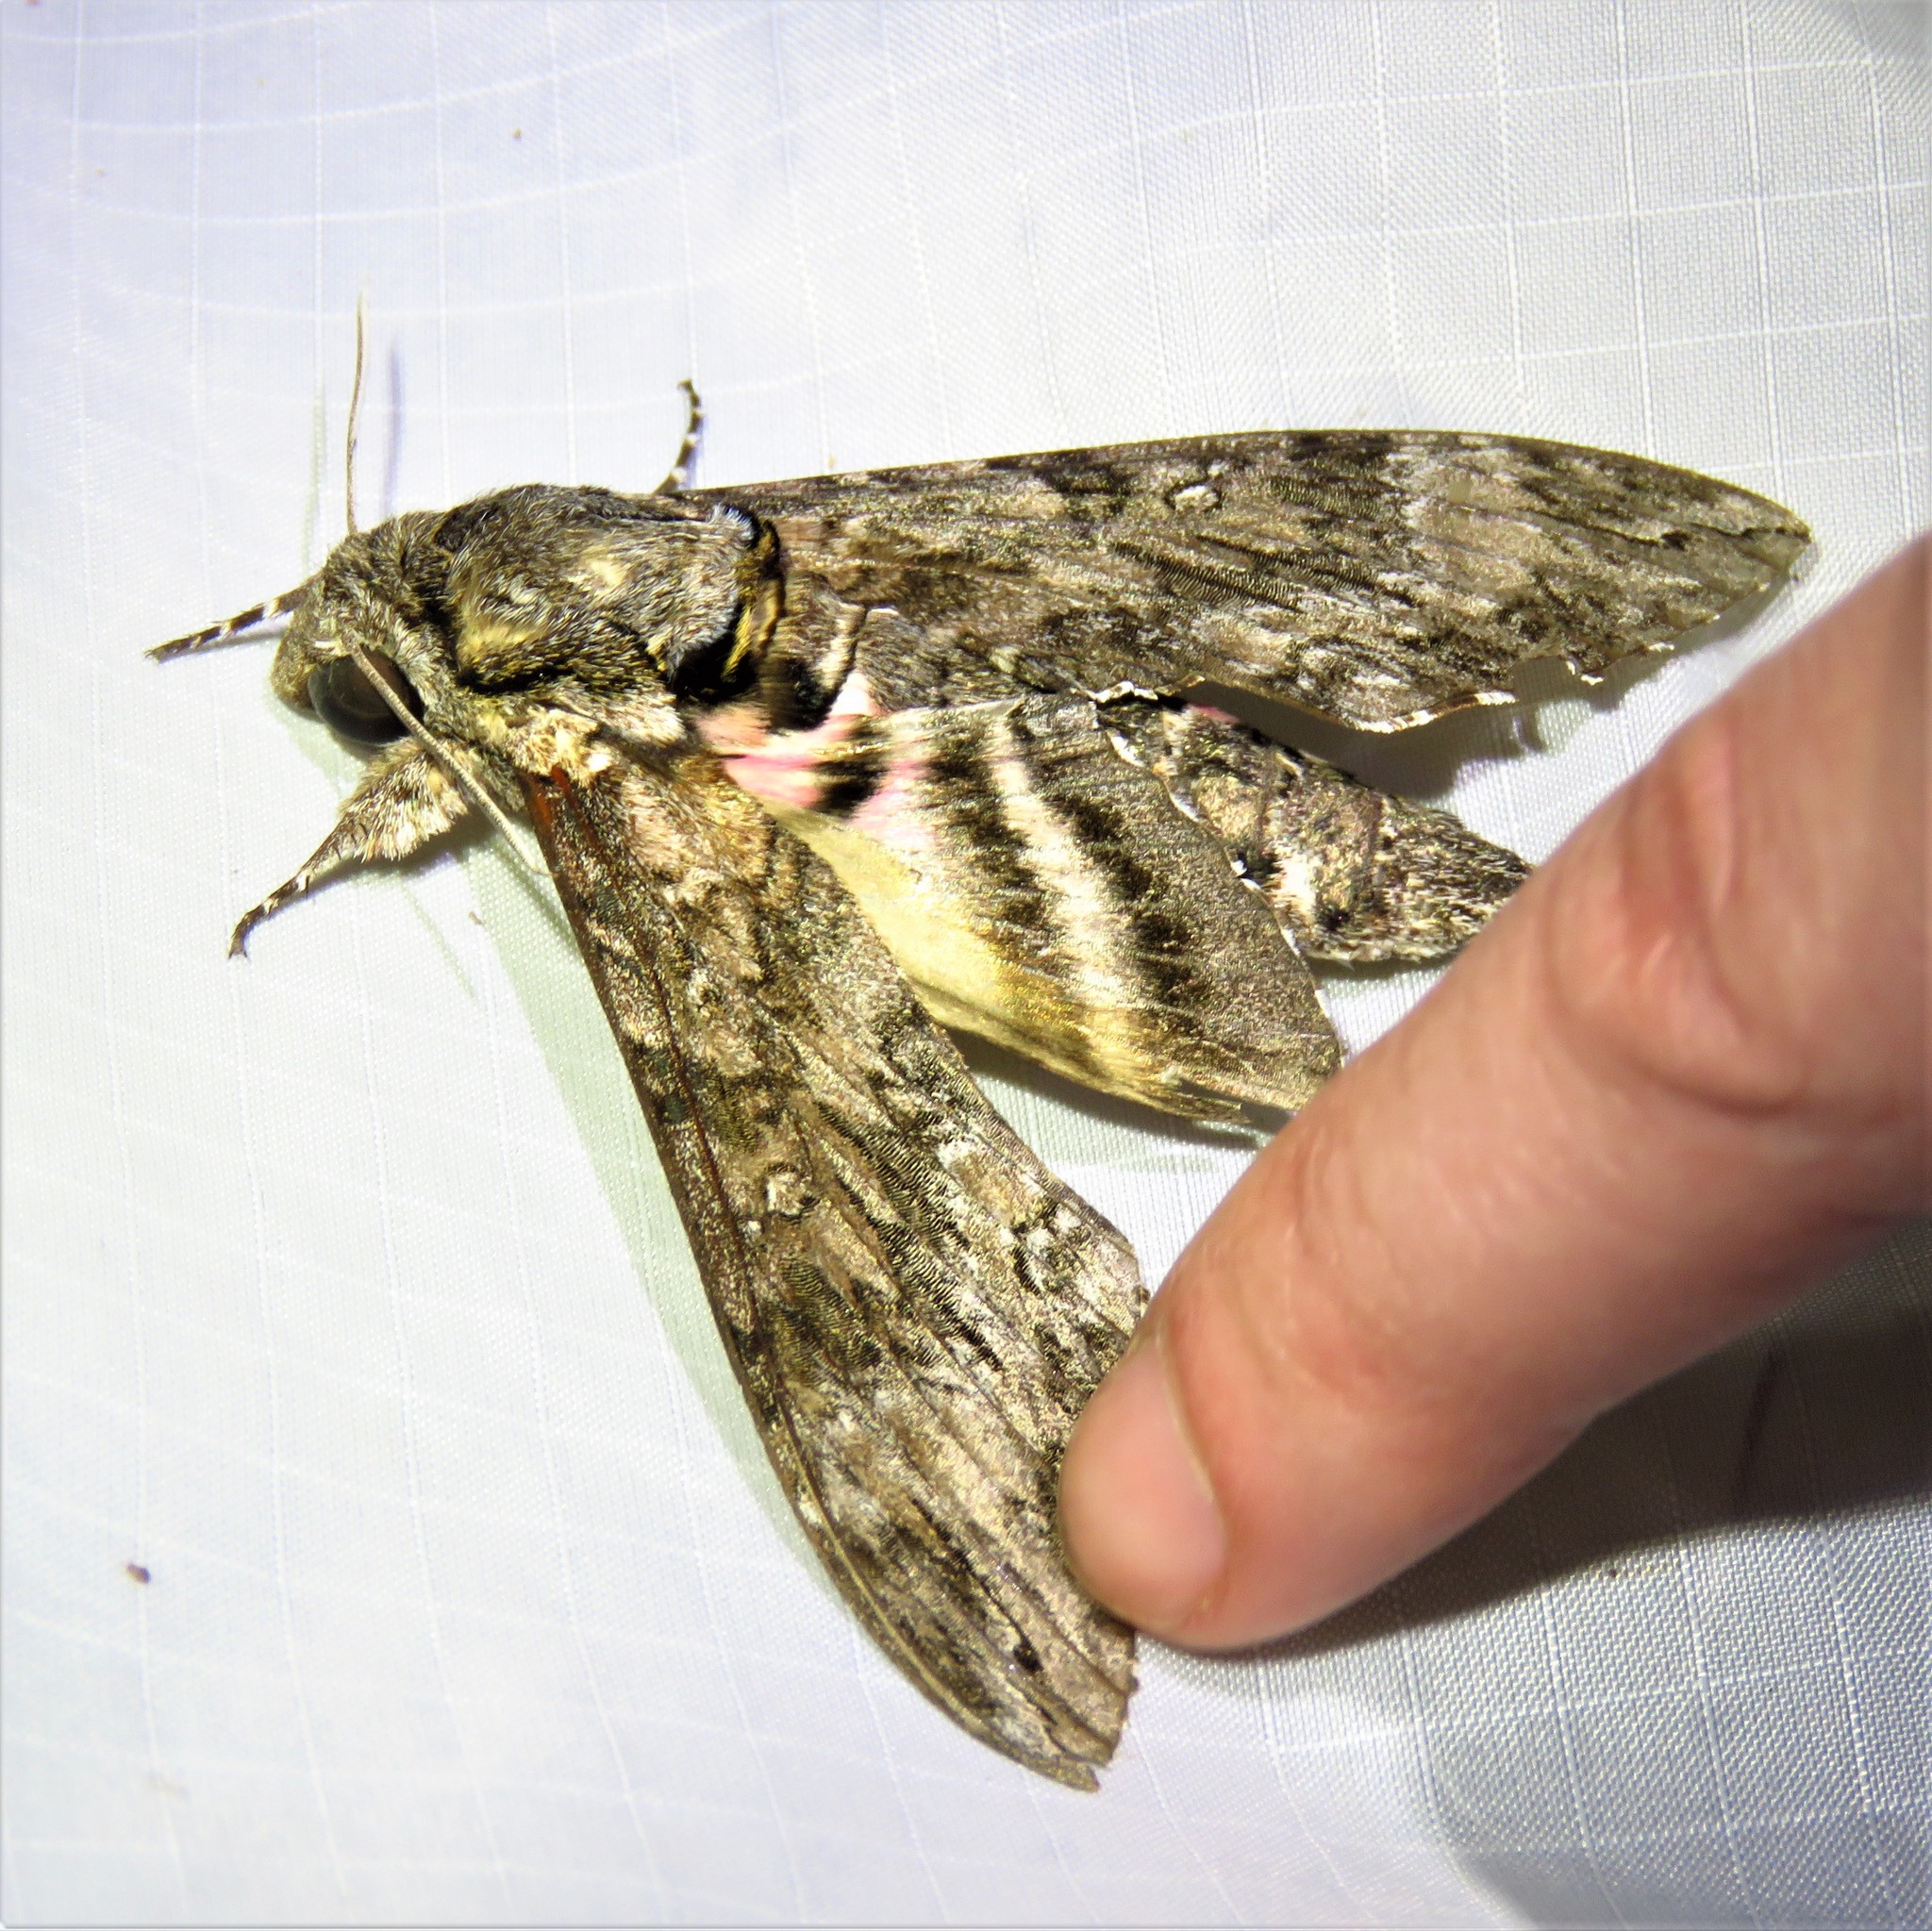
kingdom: Animalia
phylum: Arthropoda
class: Insecta
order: Lepidoptera
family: Sphingidae
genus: Agrius
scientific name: Agrius cingulata
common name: Pink-spotted hawkmoth
